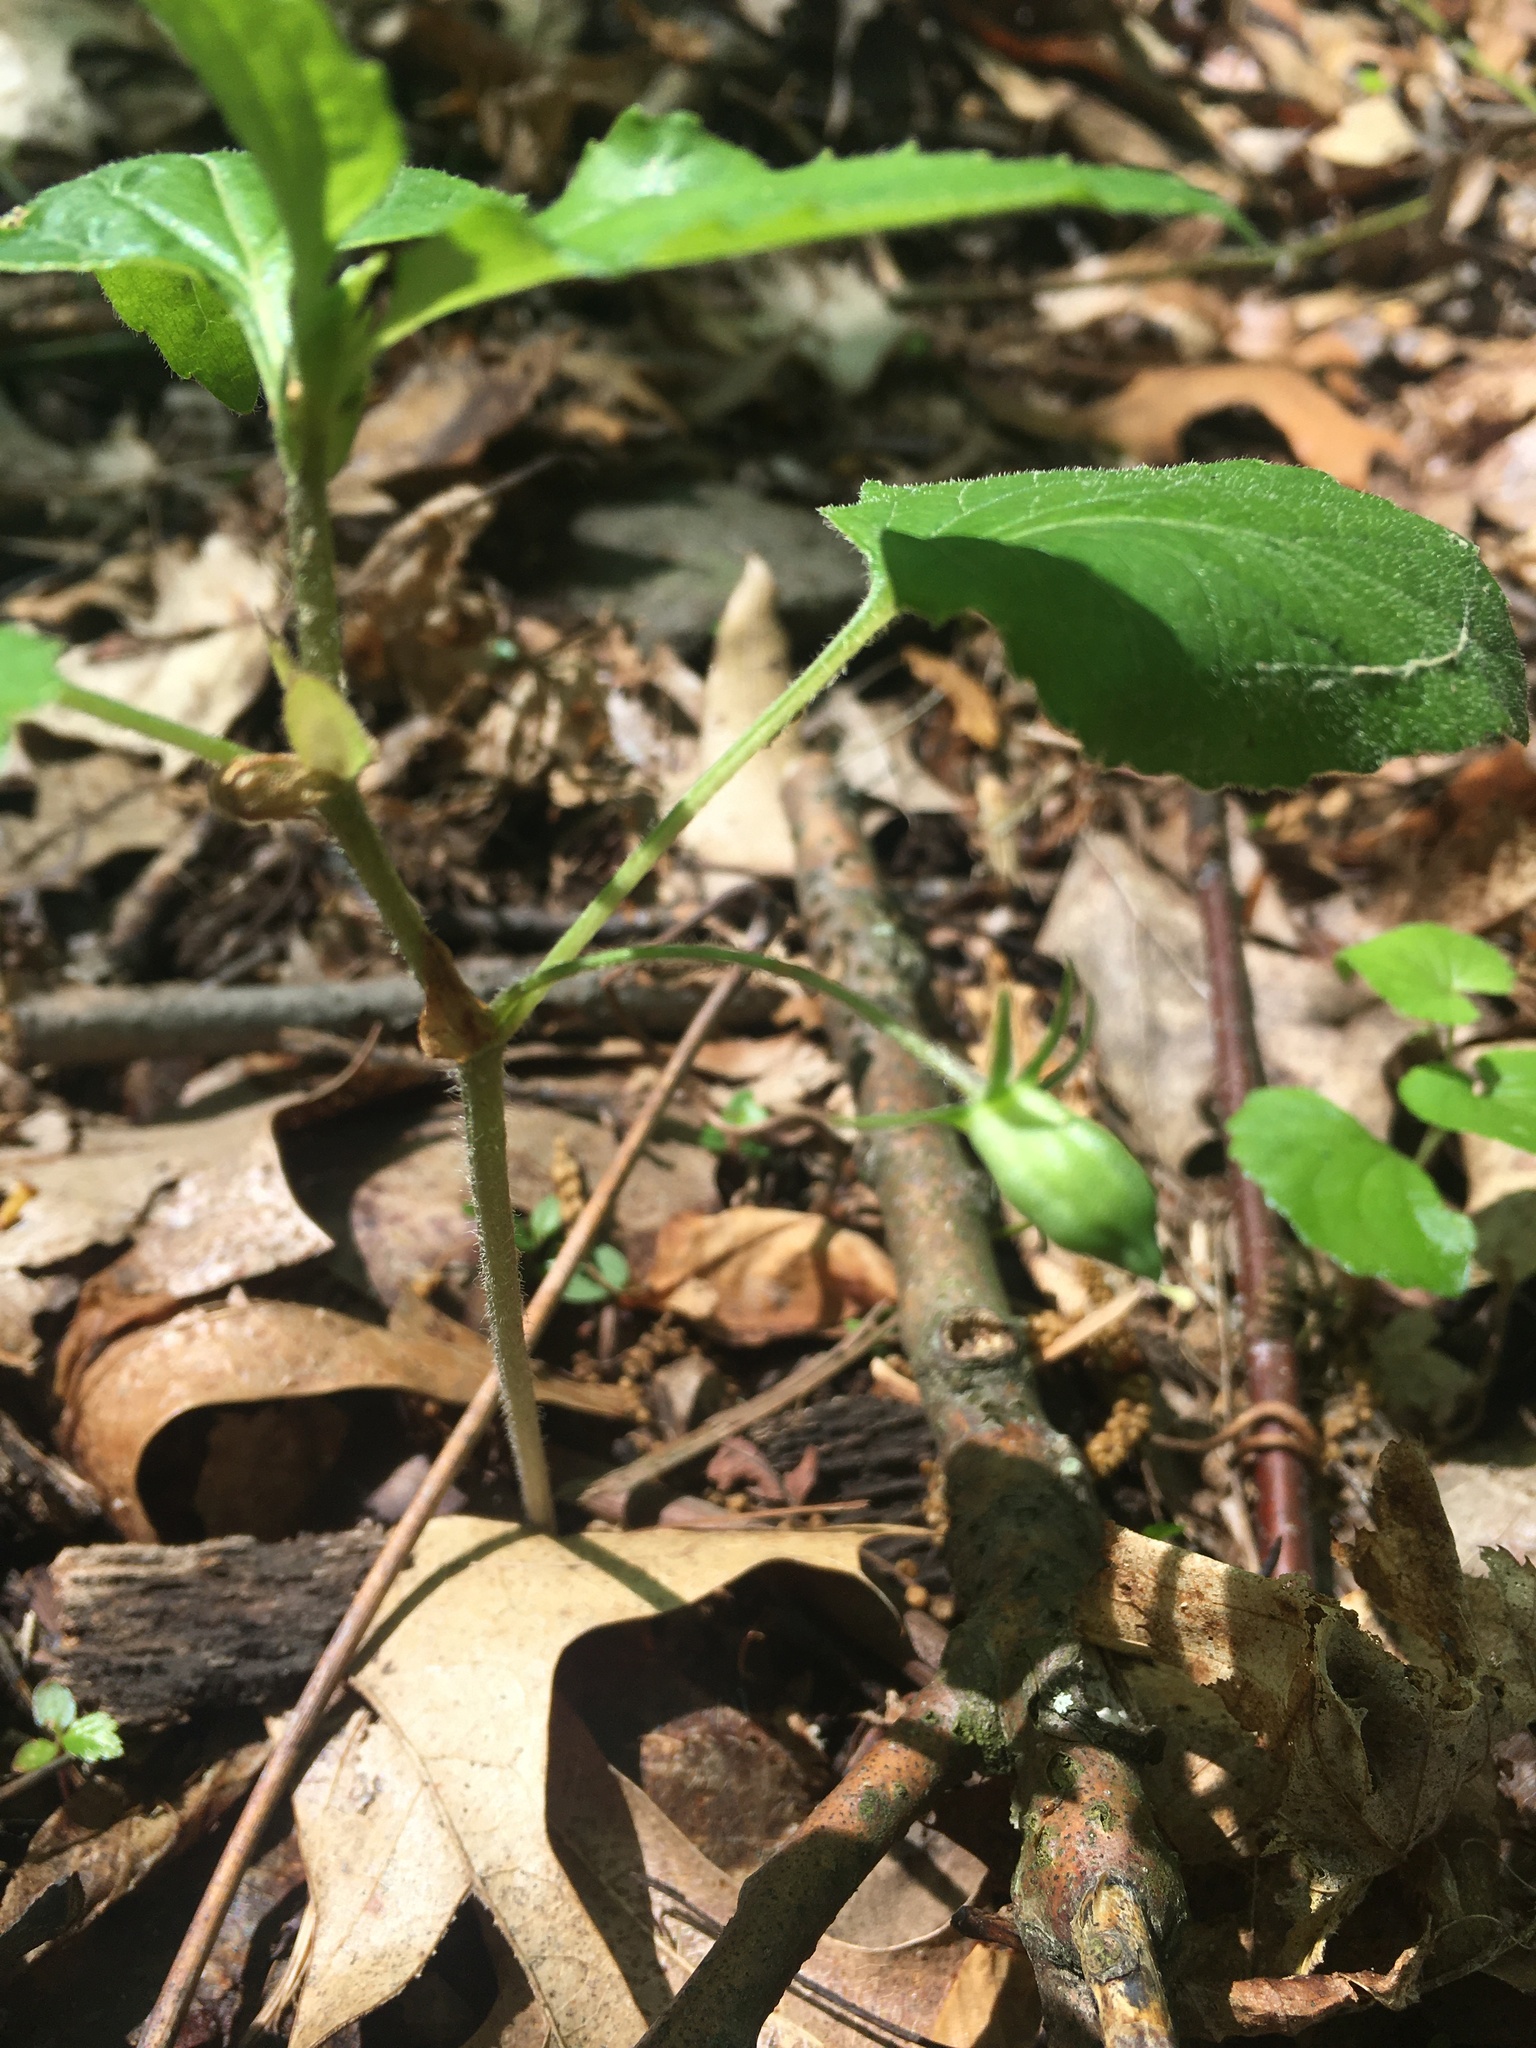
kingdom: Plantae
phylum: Tracheophyta
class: Magnoliopsida
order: Malpighiales
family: Violaceae
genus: Viola
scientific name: Viola glaberrima
